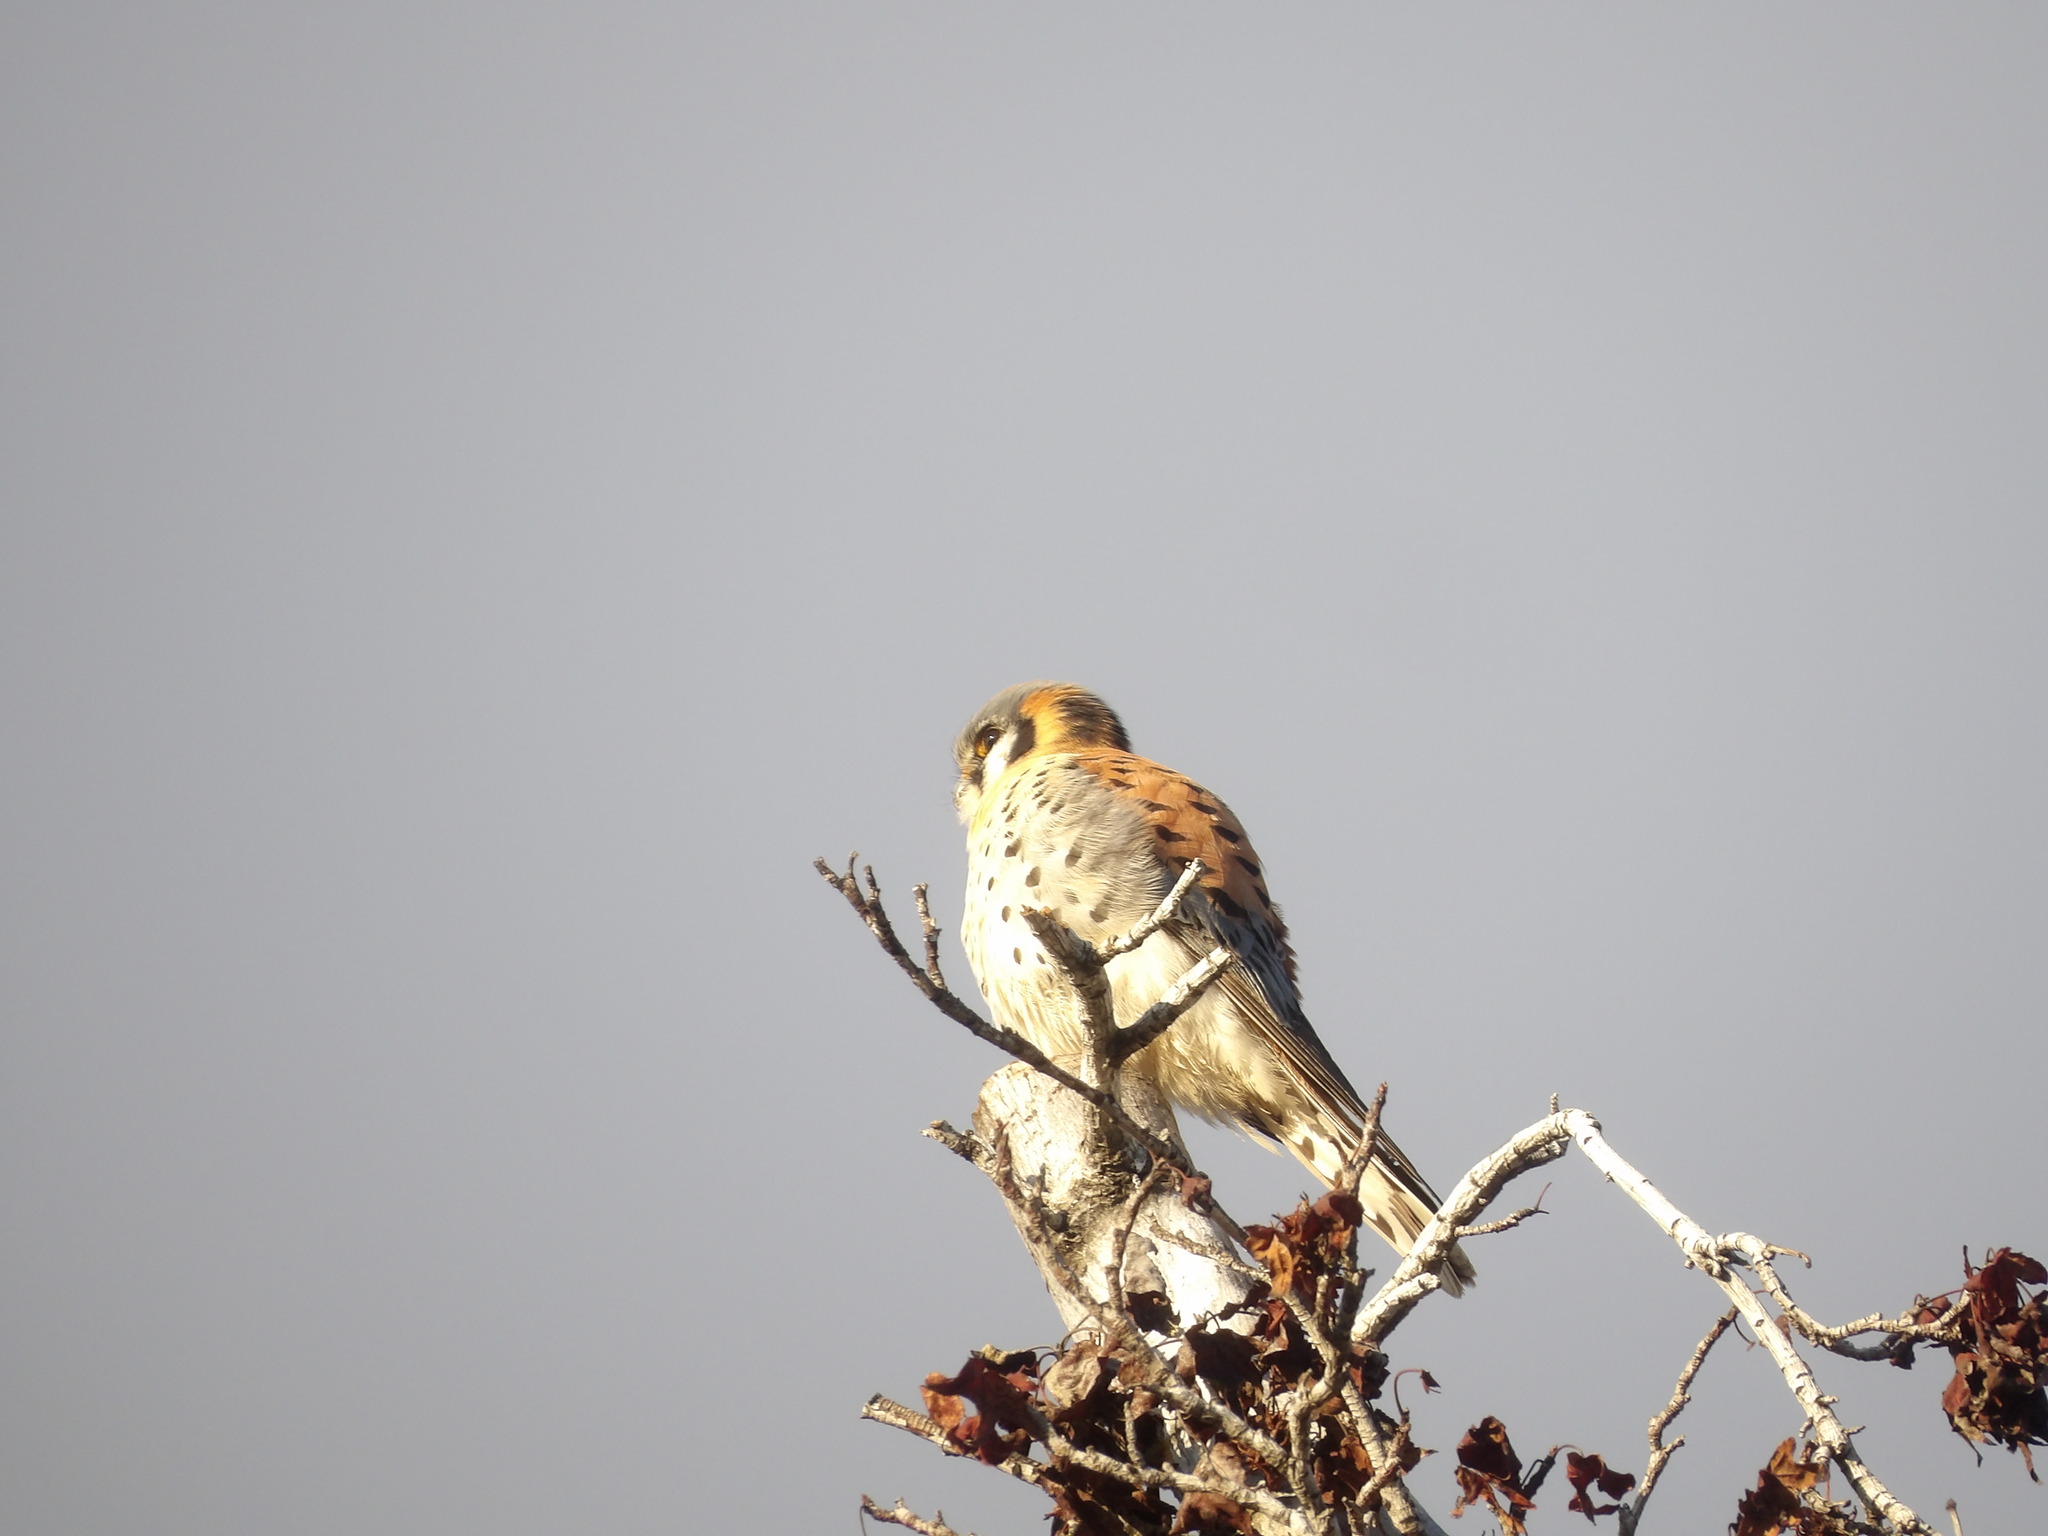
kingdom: Animalia
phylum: Chordata
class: Aves
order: Falconiformes
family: Falconidae
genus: Falco
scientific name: Falco sparverius
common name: American kestrel
